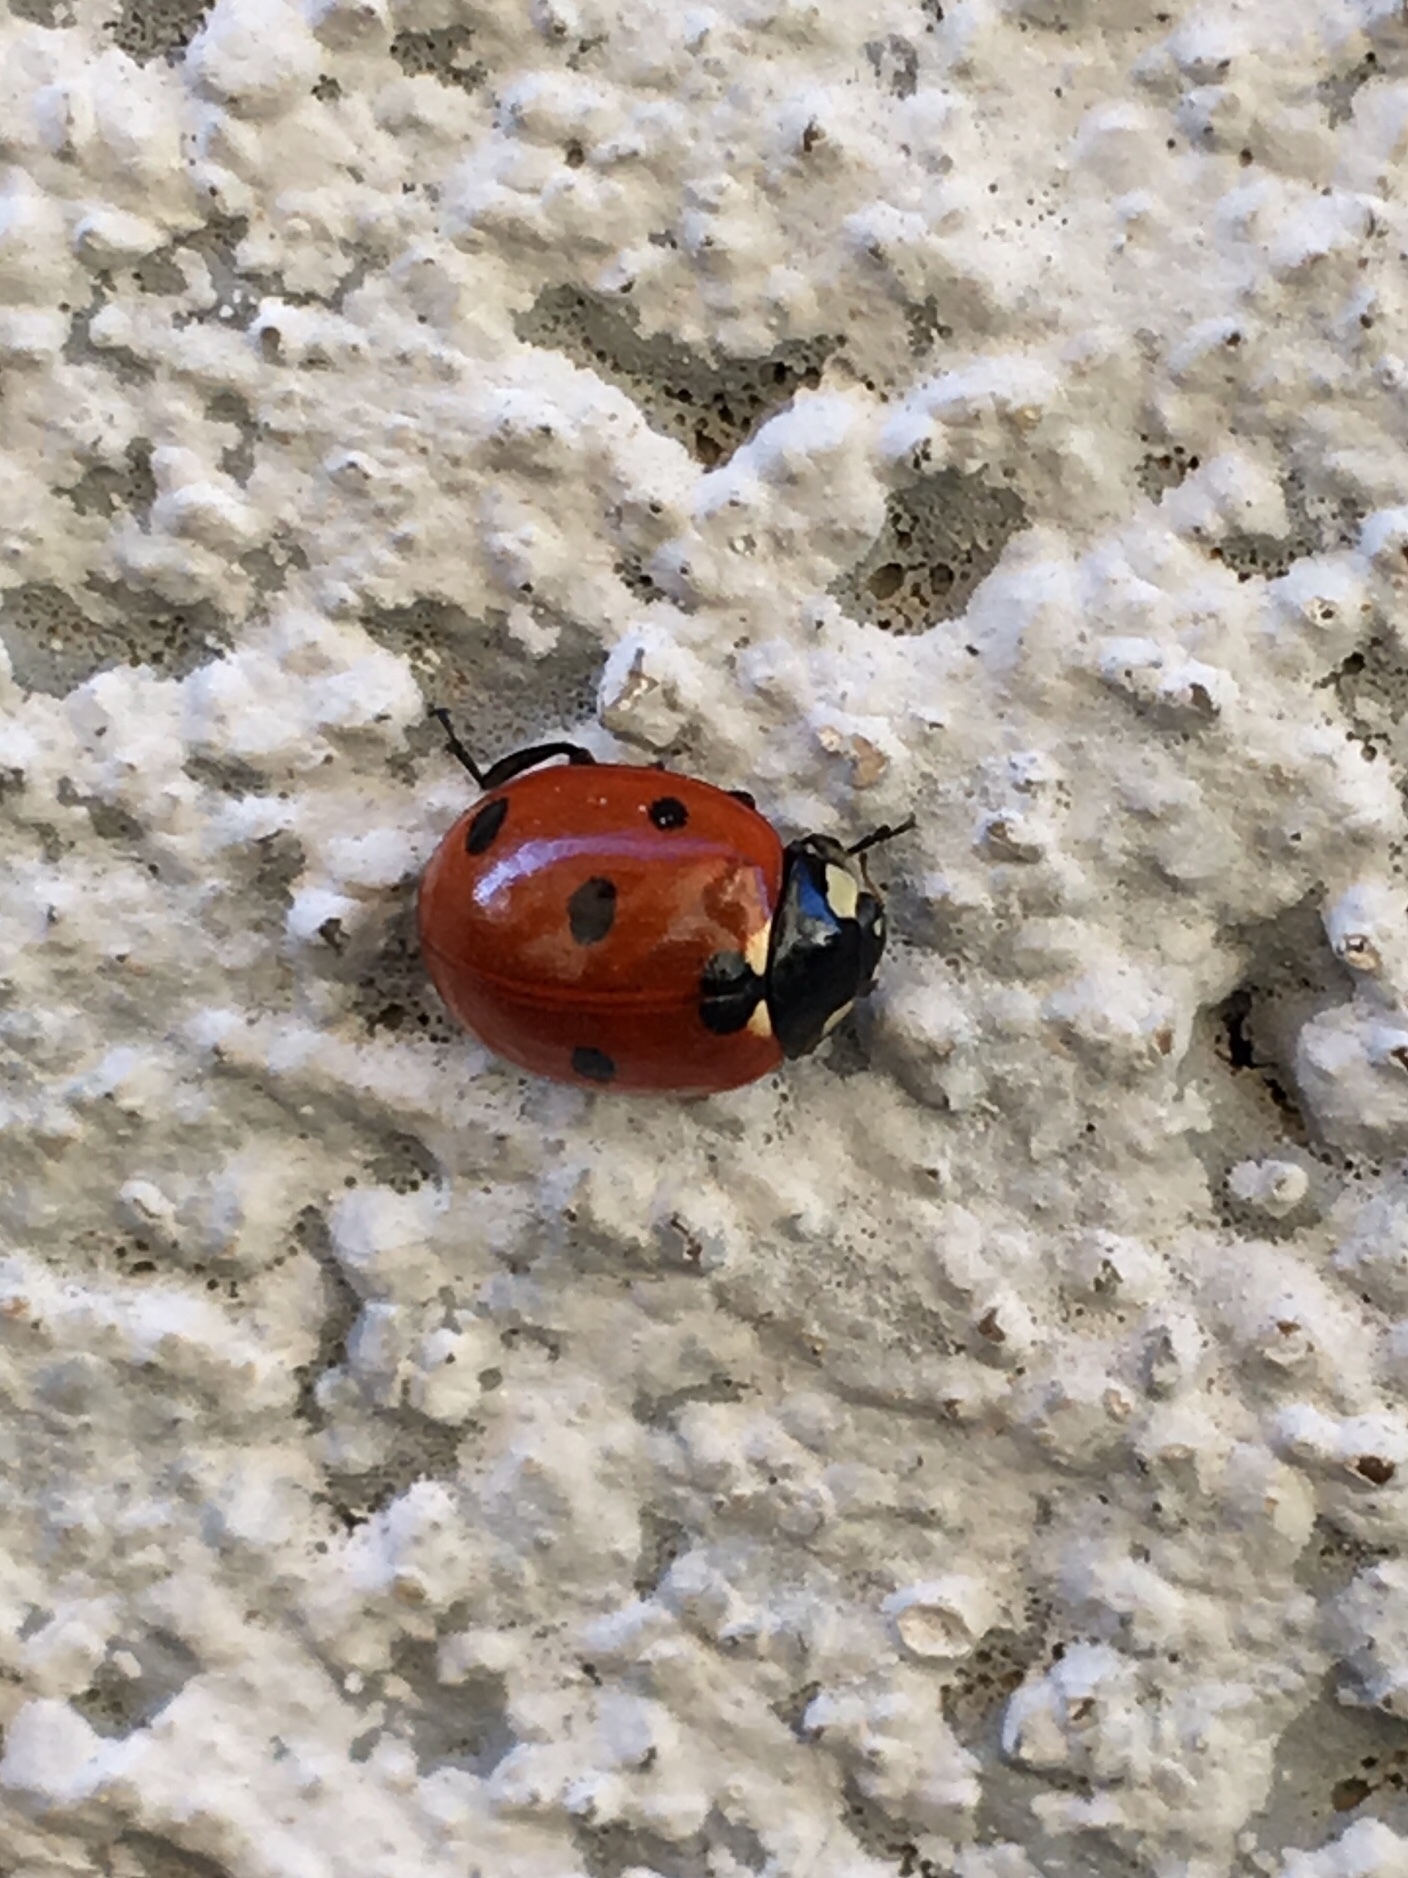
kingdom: Animalia
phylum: Arthropoda
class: Insecta
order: Coleoptera
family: Coccinellidae
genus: Coccinella
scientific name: Coccinella septempunctata
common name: Sevenspotted lady beetle
